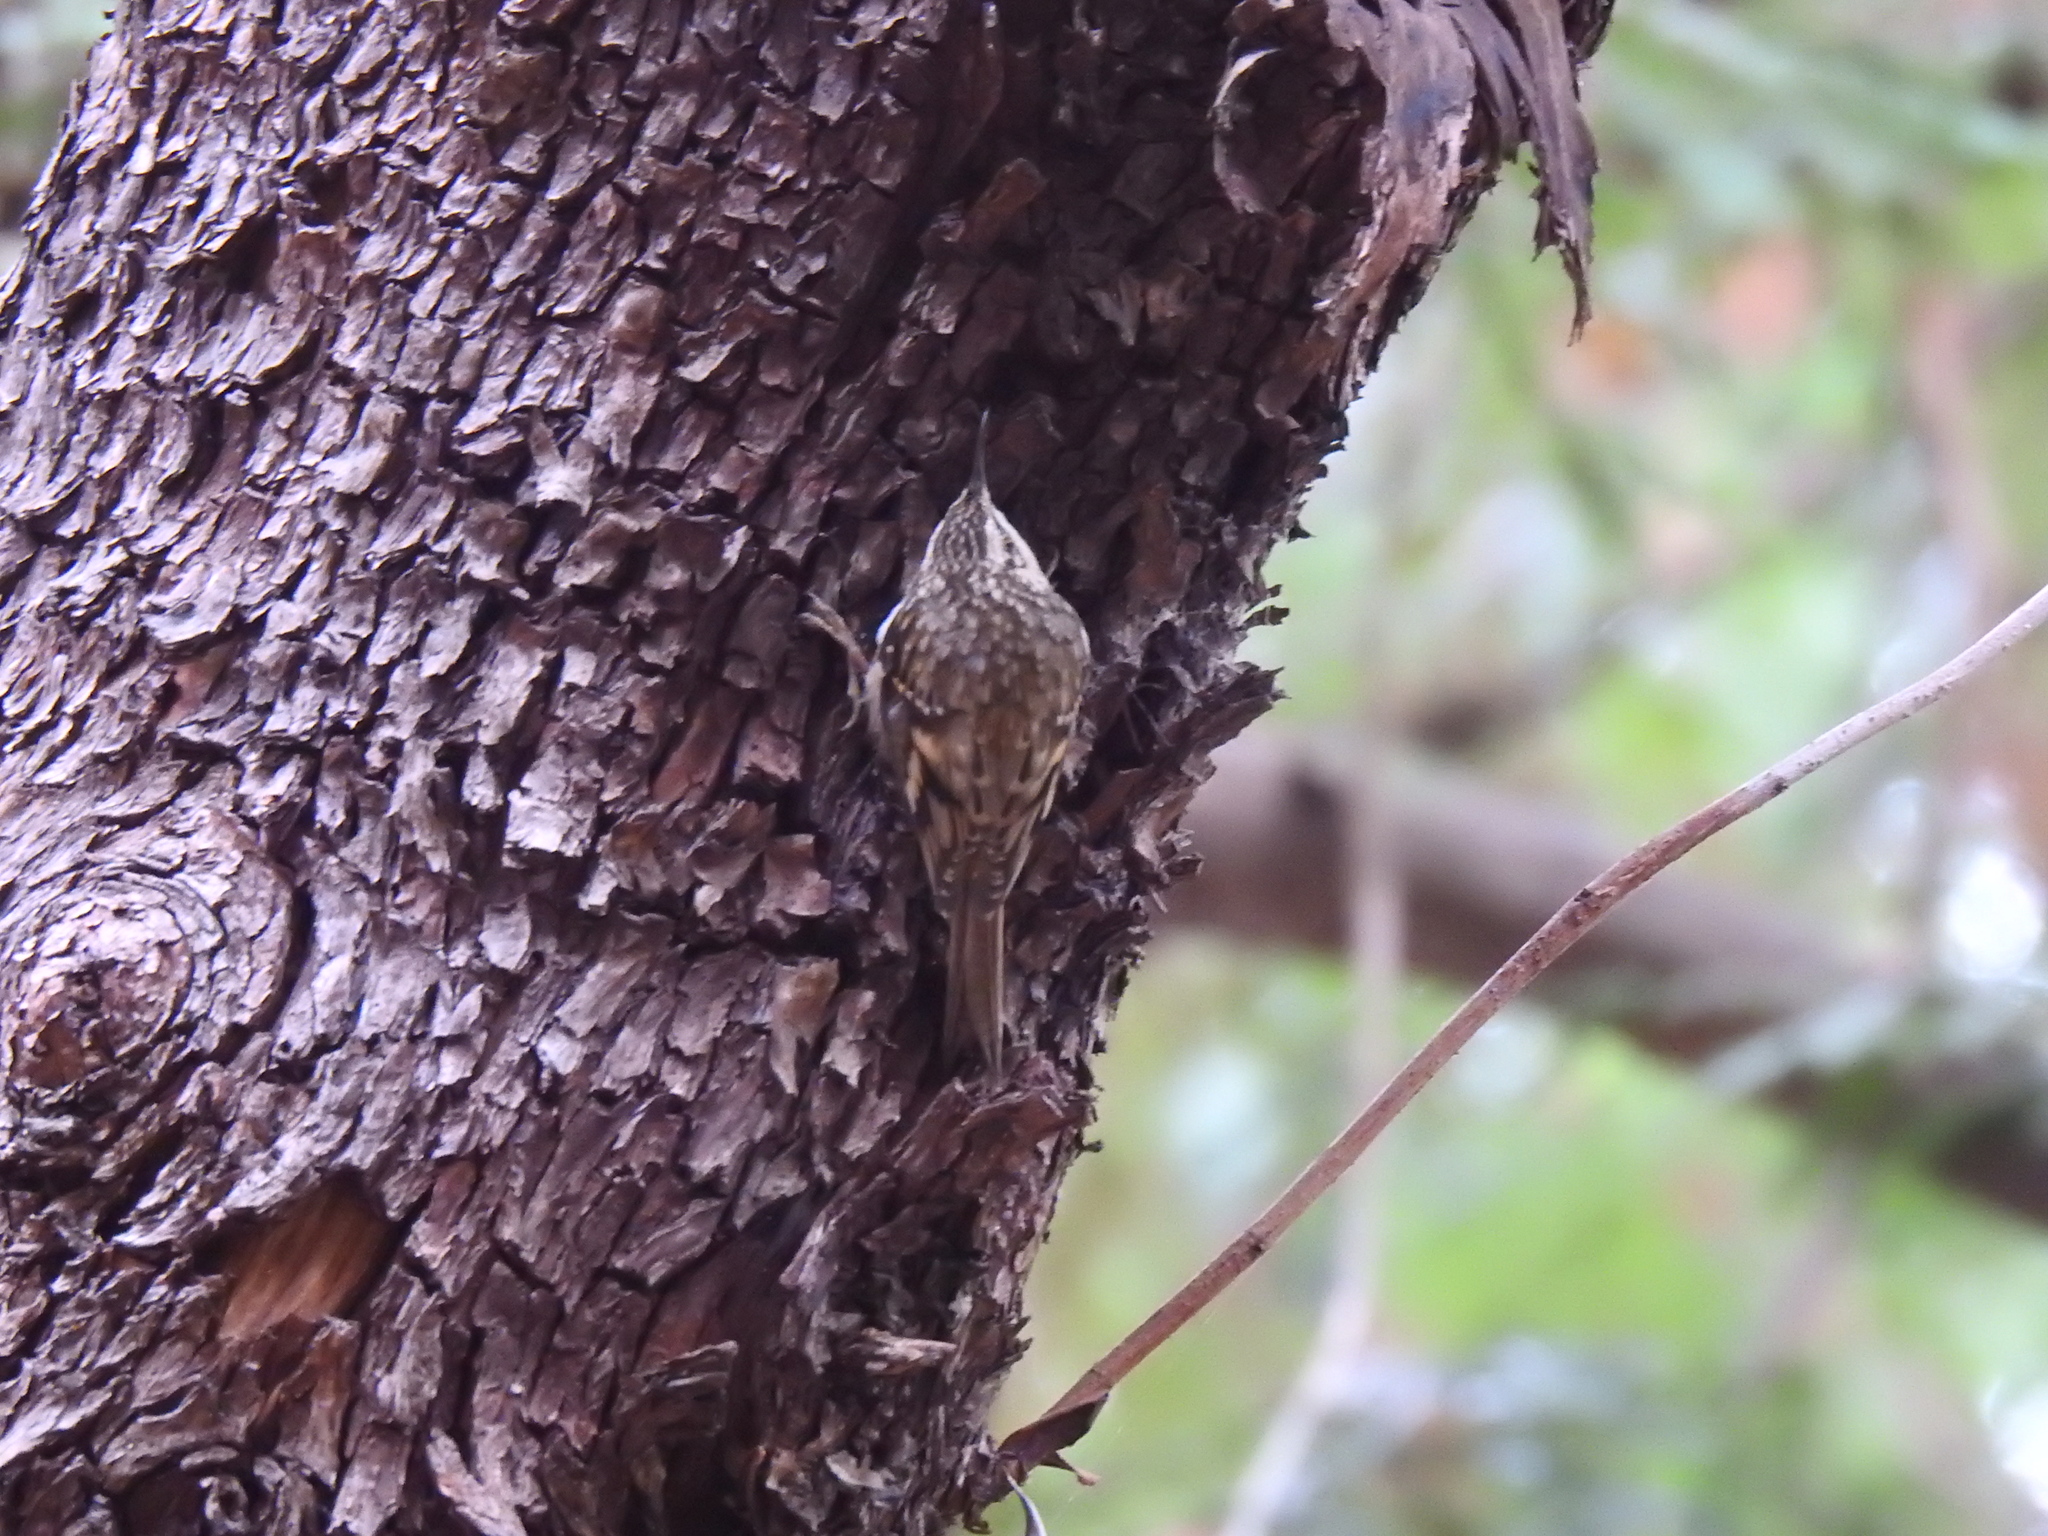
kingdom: Animalia
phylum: Chordata
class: Aves
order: Passeriformes
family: Certhiidae
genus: Certhia
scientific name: Certhia americana
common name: Brown creeper
